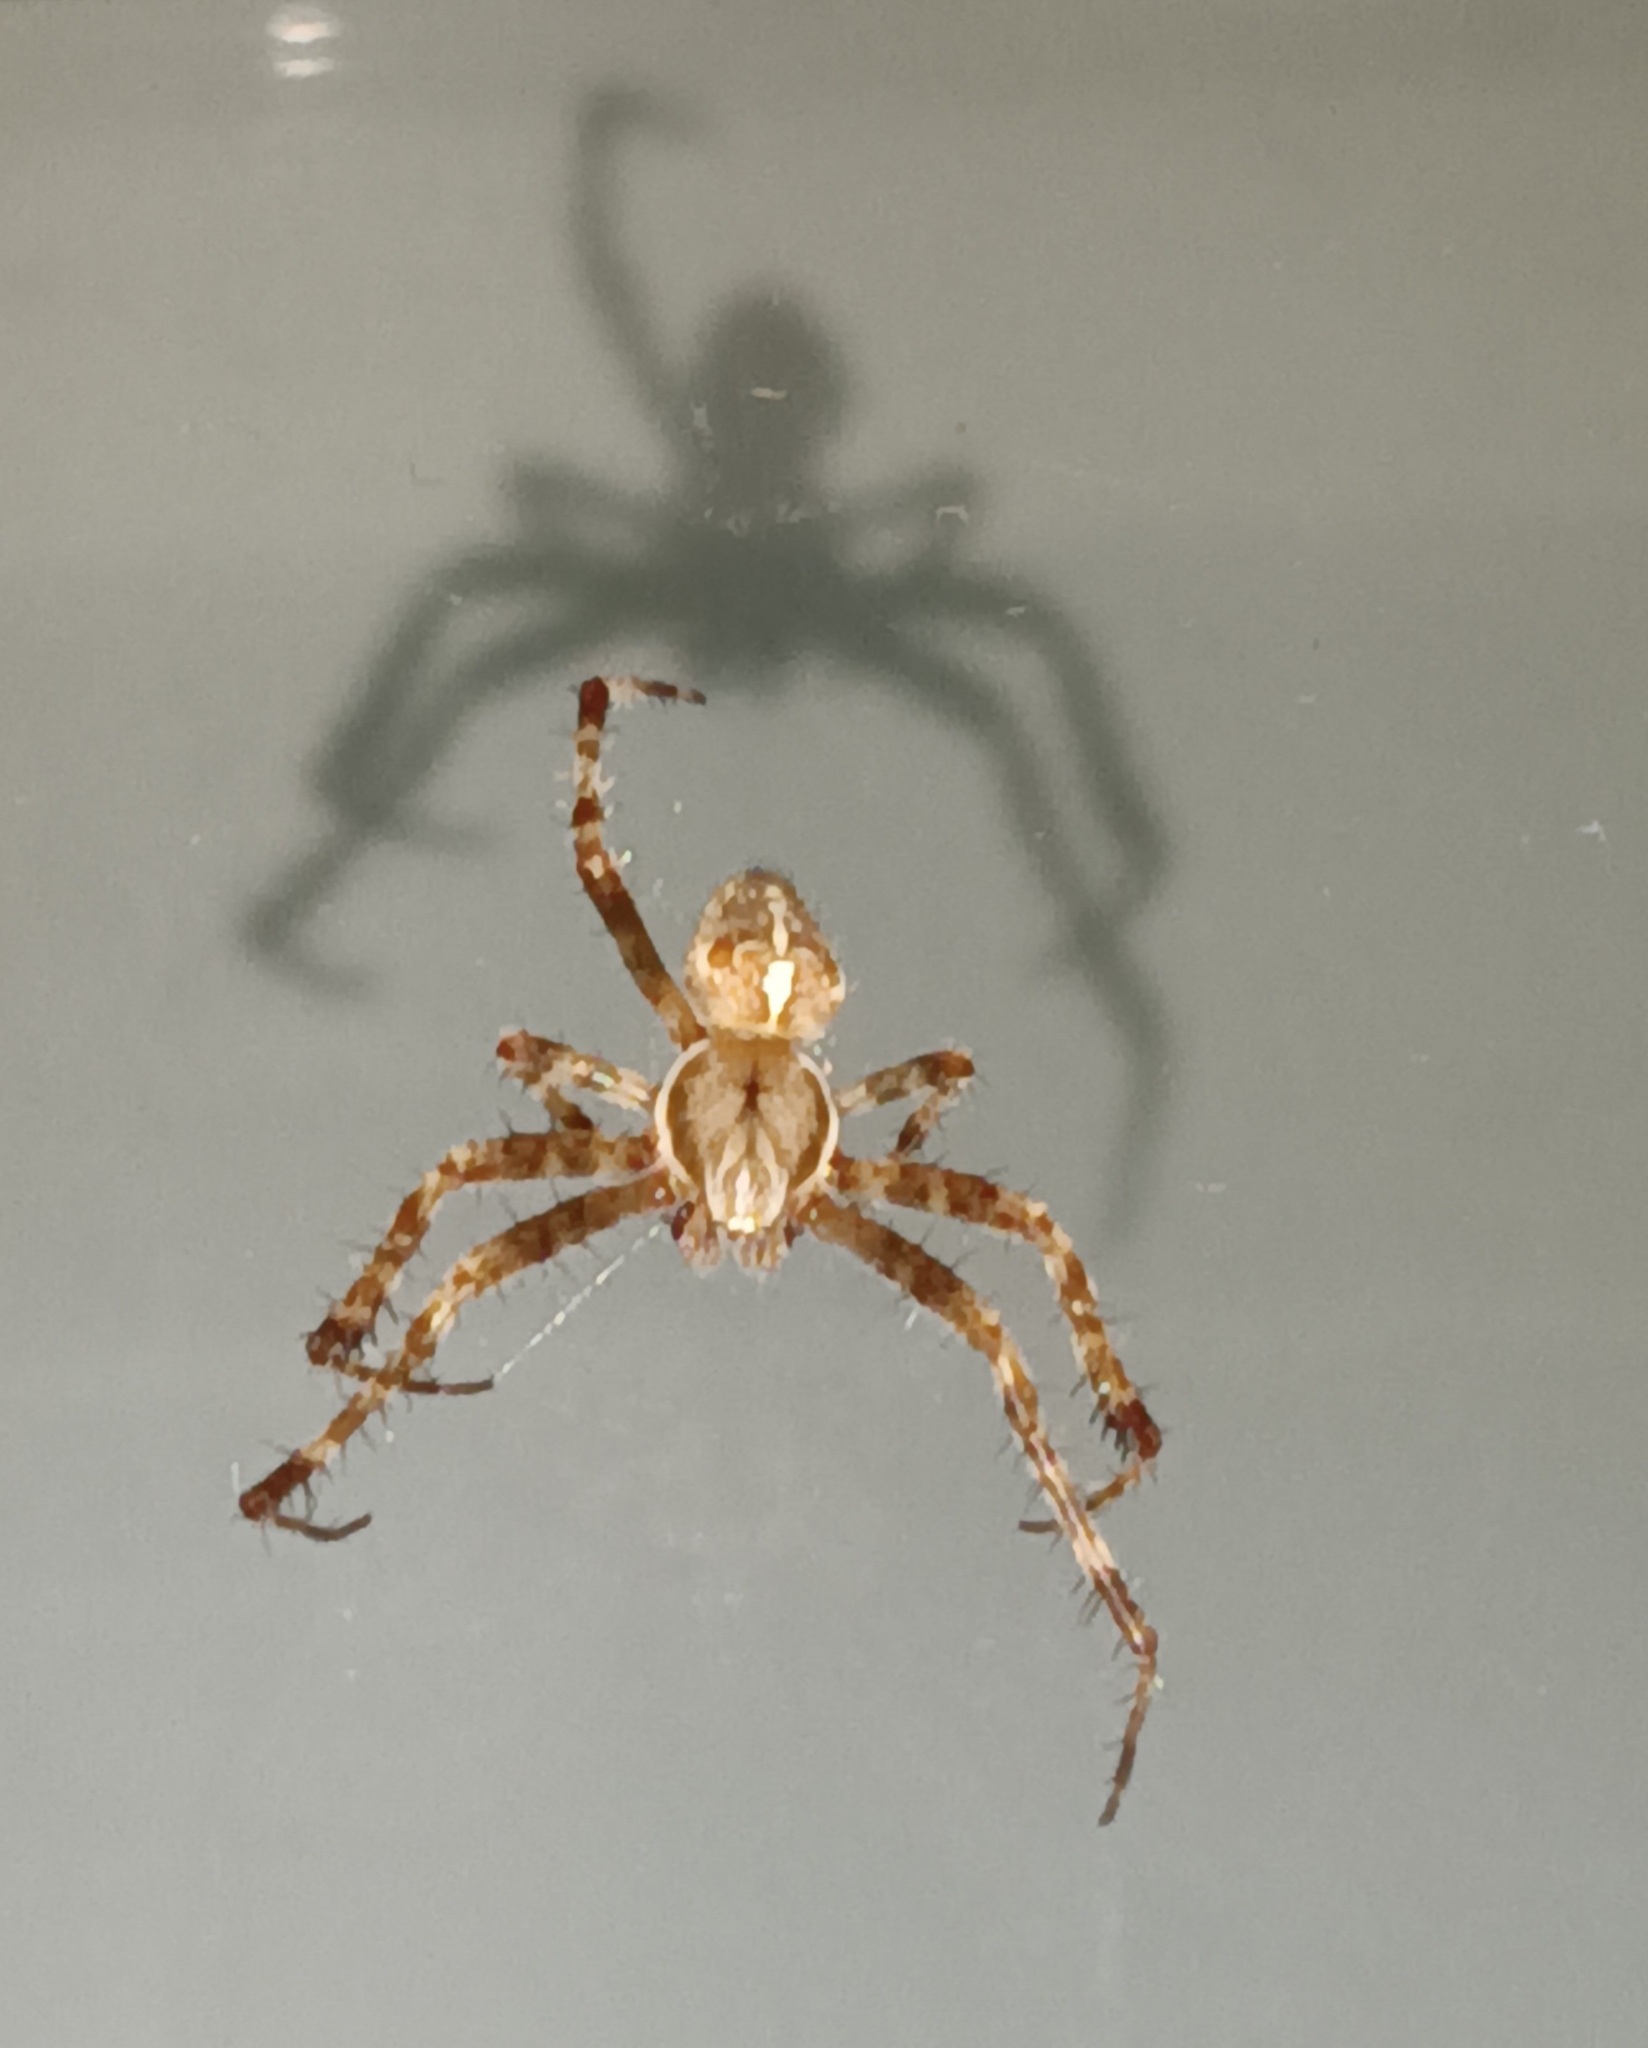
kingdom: Animalia
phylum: Arthropoda
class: Arachnida
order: Araneae
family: Araneidae
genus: Araneus
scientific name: Araneus diadematus
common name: Cross orbweaver
